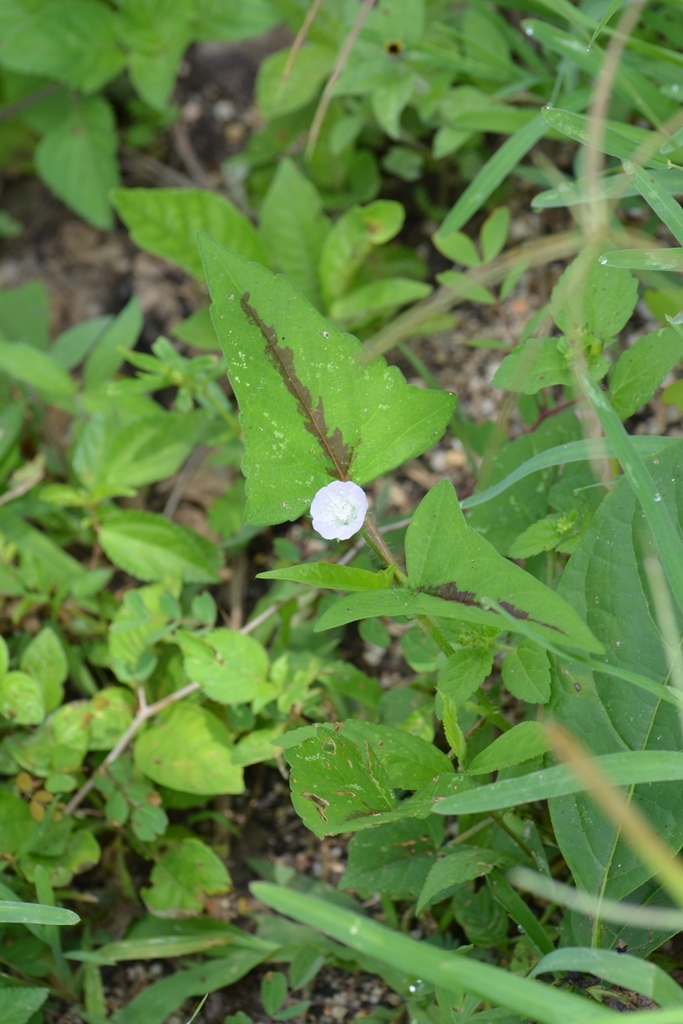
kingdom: Plantae
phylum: Tracheophyta
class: Magnoliopsida
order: Malvales
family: Malvaceae
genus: Anoda
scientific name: Anoda acerifolia
